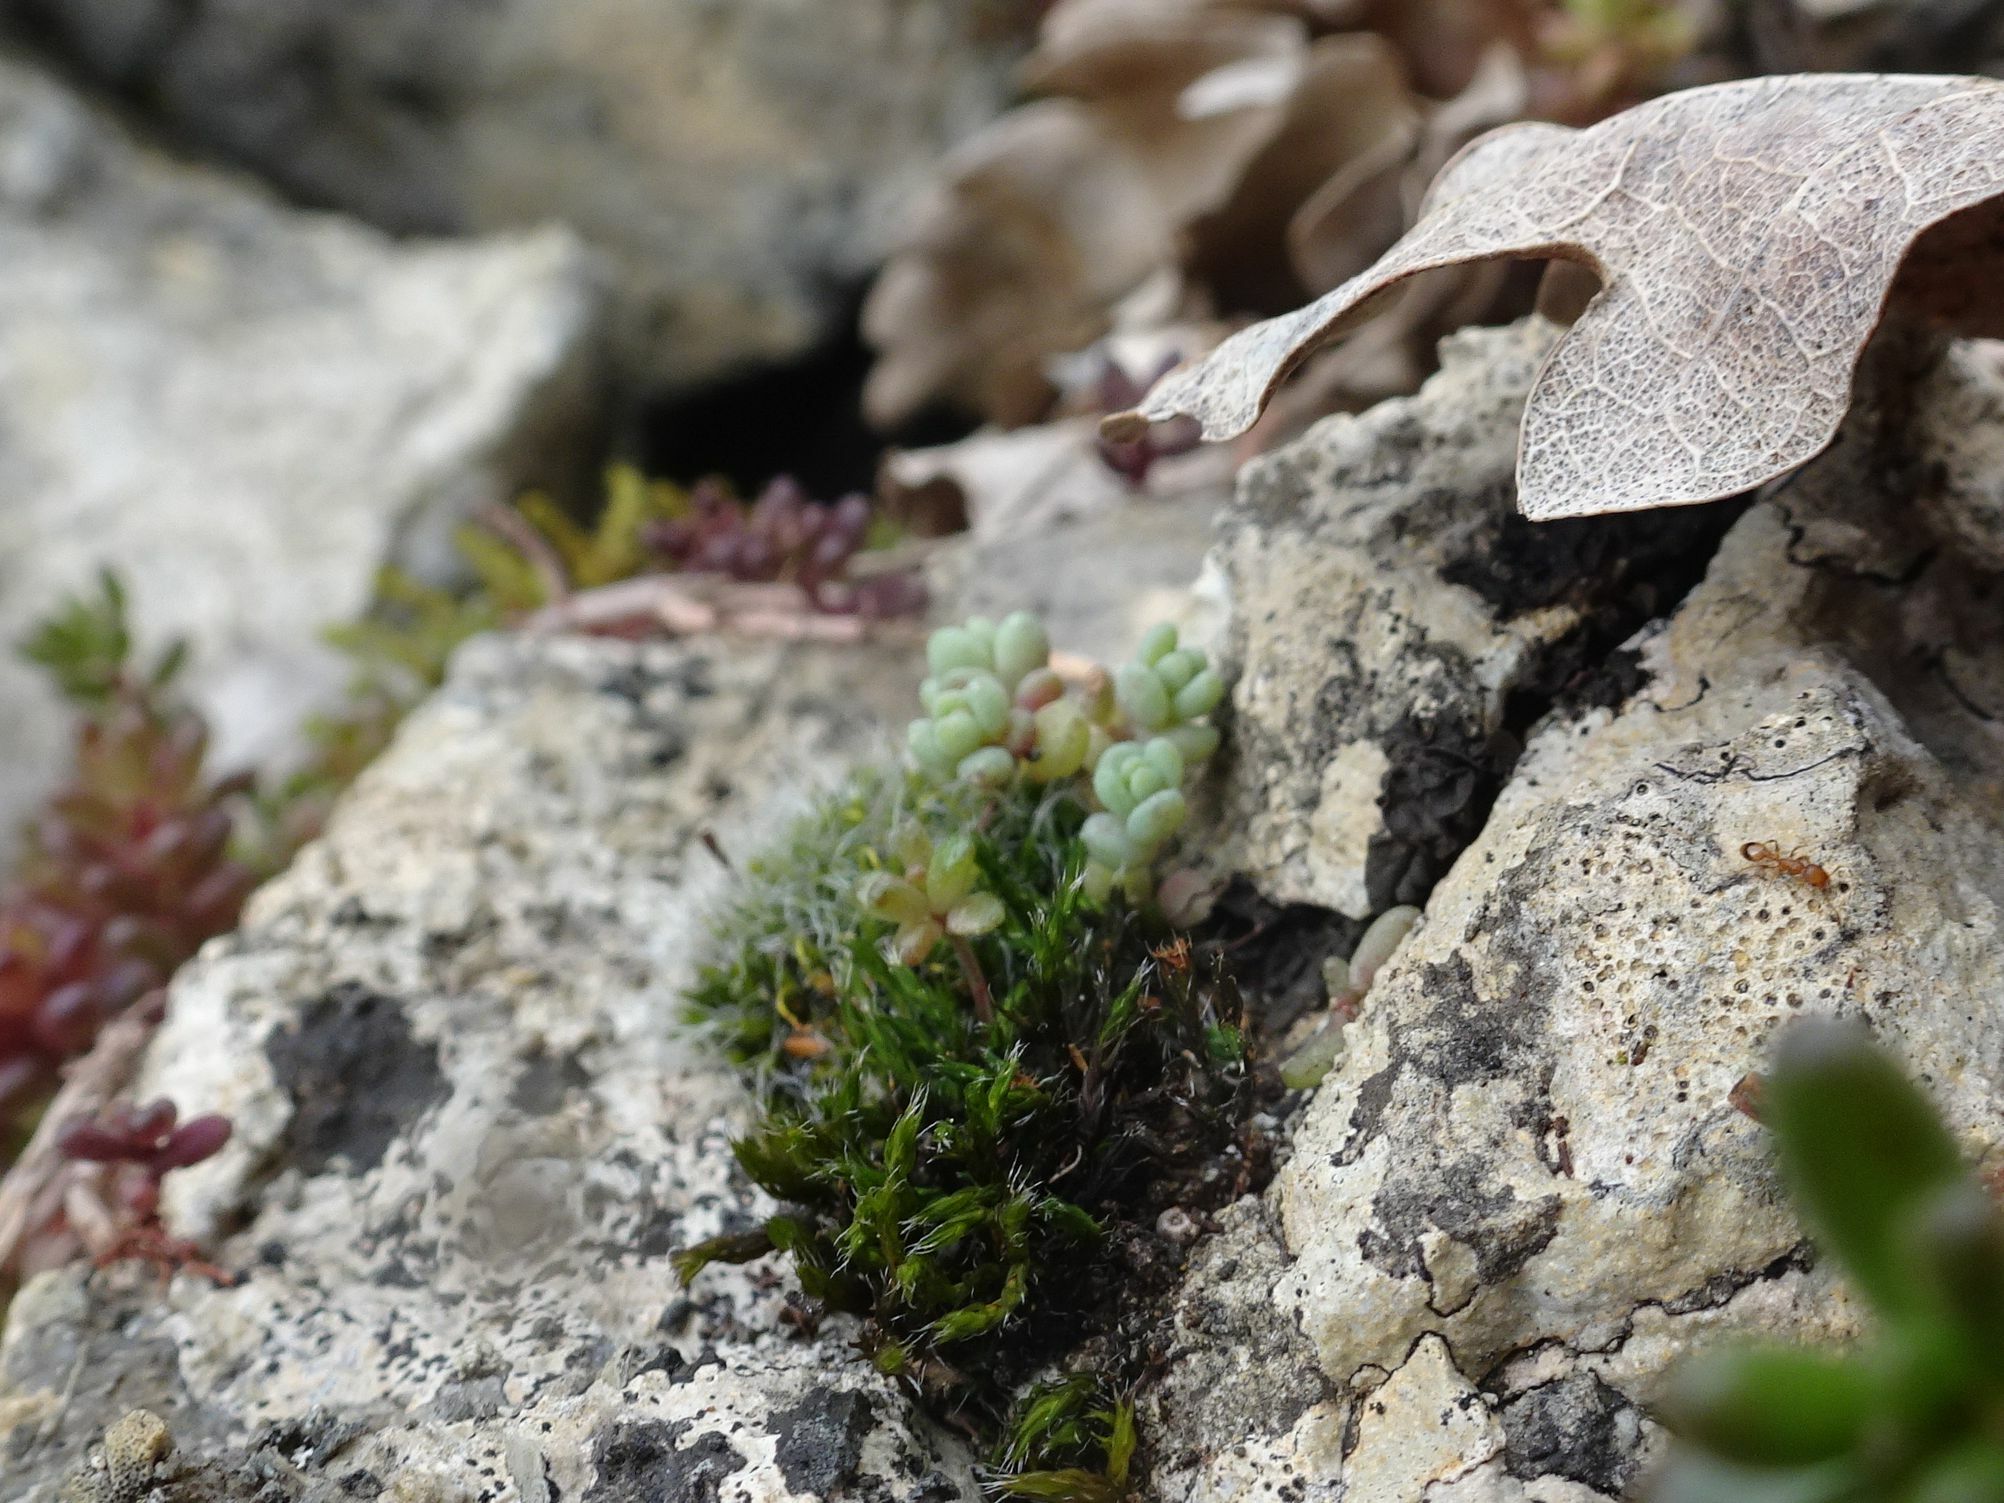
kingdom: Plantae
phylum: Tracheophyta
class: Magnoliopsida
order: Saxifragales
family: Crassulaceae
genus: Sedum
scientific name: Sedum dasyphyllum
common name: Thick-leaf stonecrop
